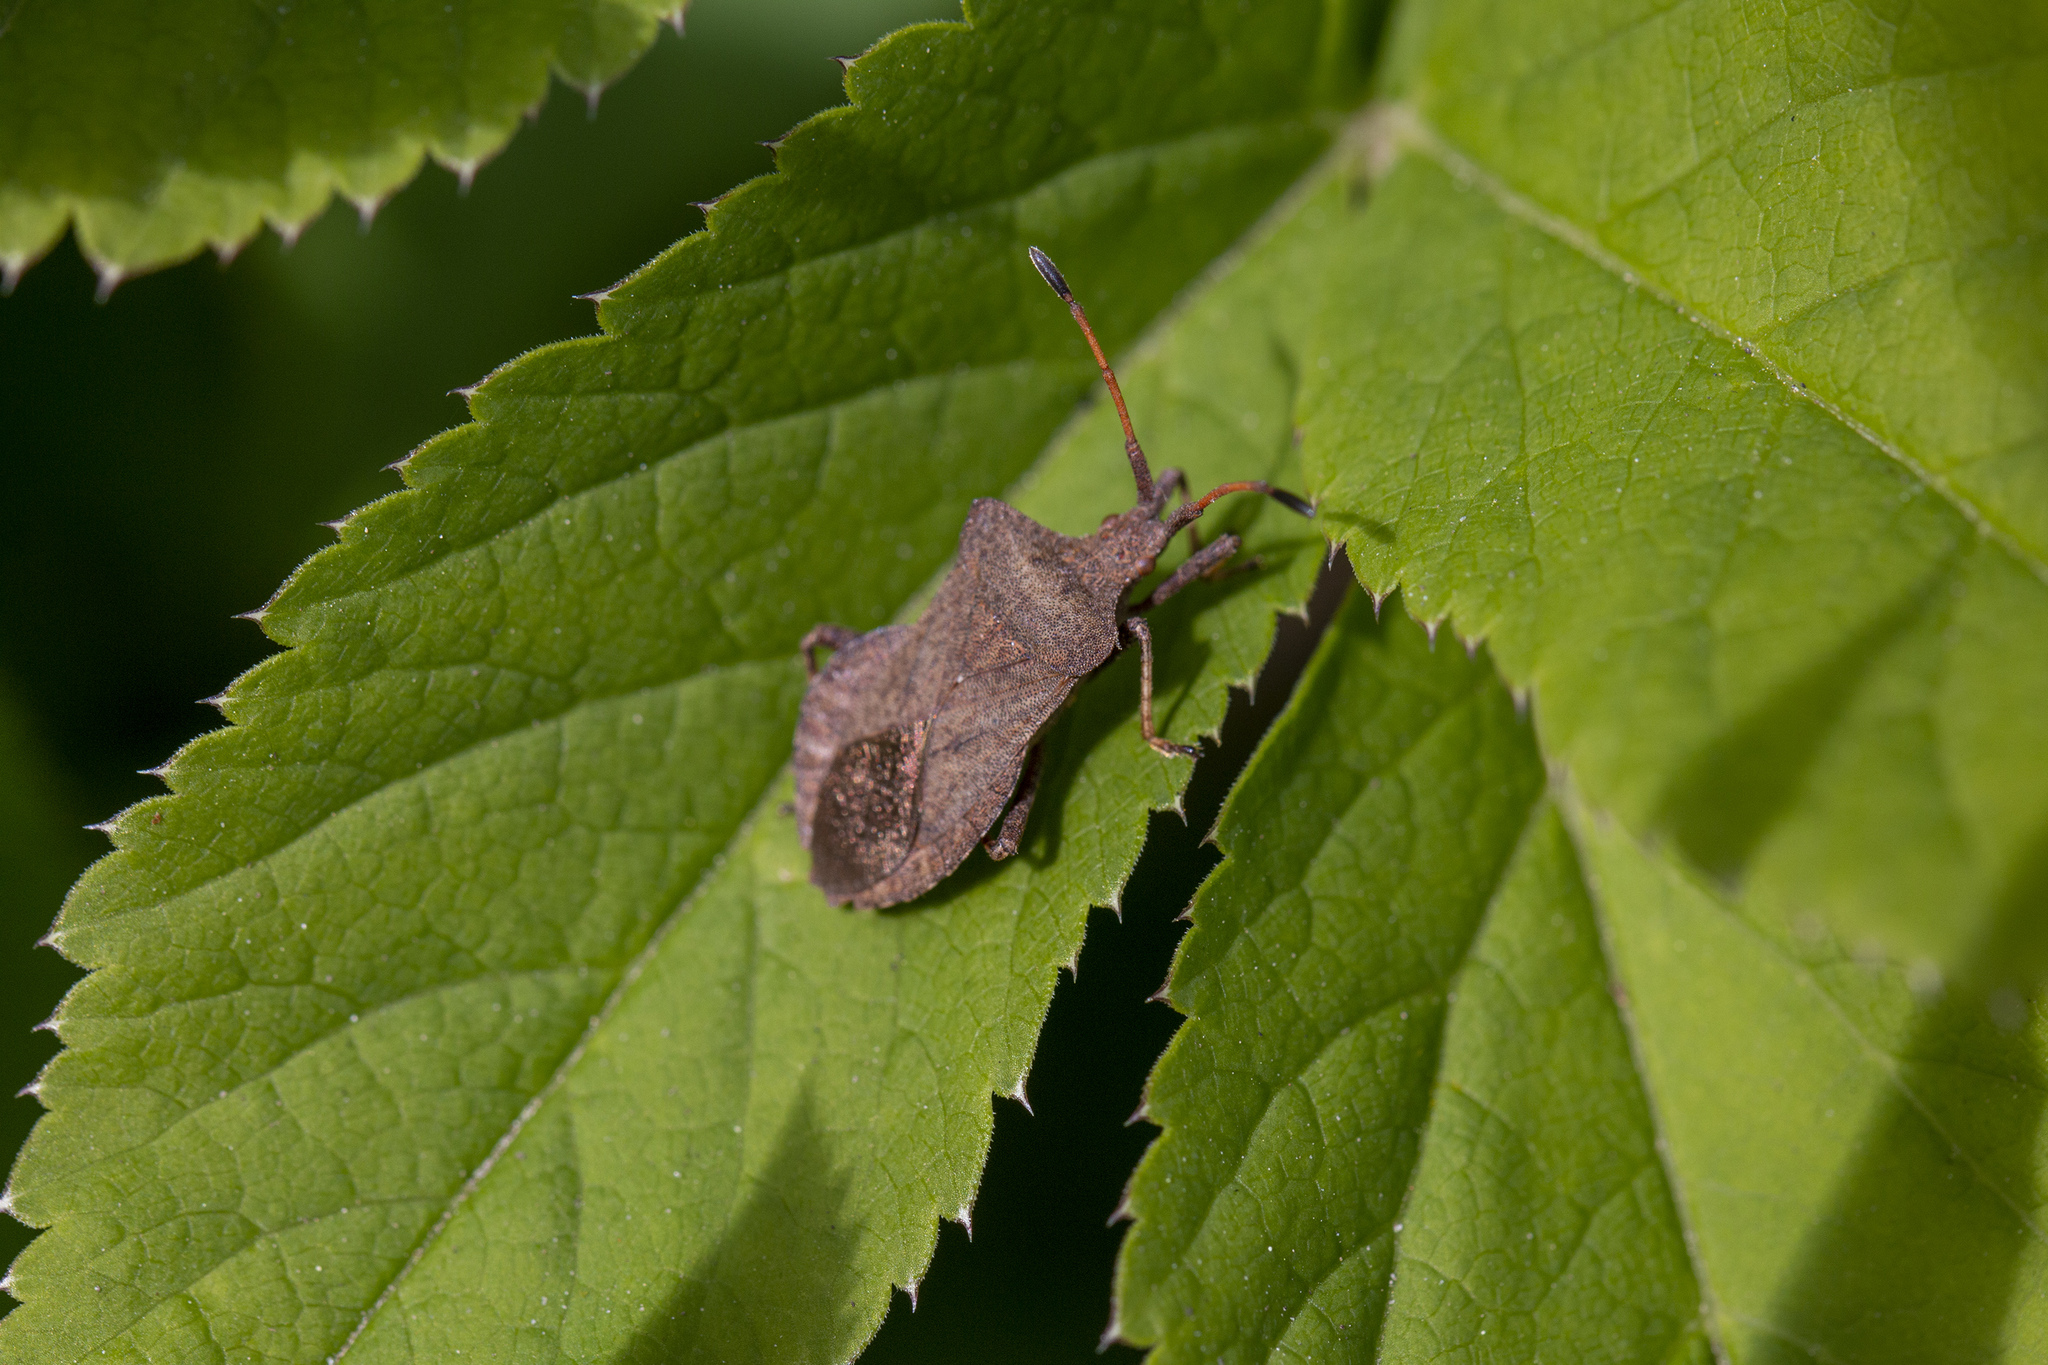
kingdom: Animalia
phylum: Arthropoda
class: Insecta
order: Hemiptera
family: Coreidae
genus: Coreus
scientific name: Coreus marginatus
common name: Dock bug
